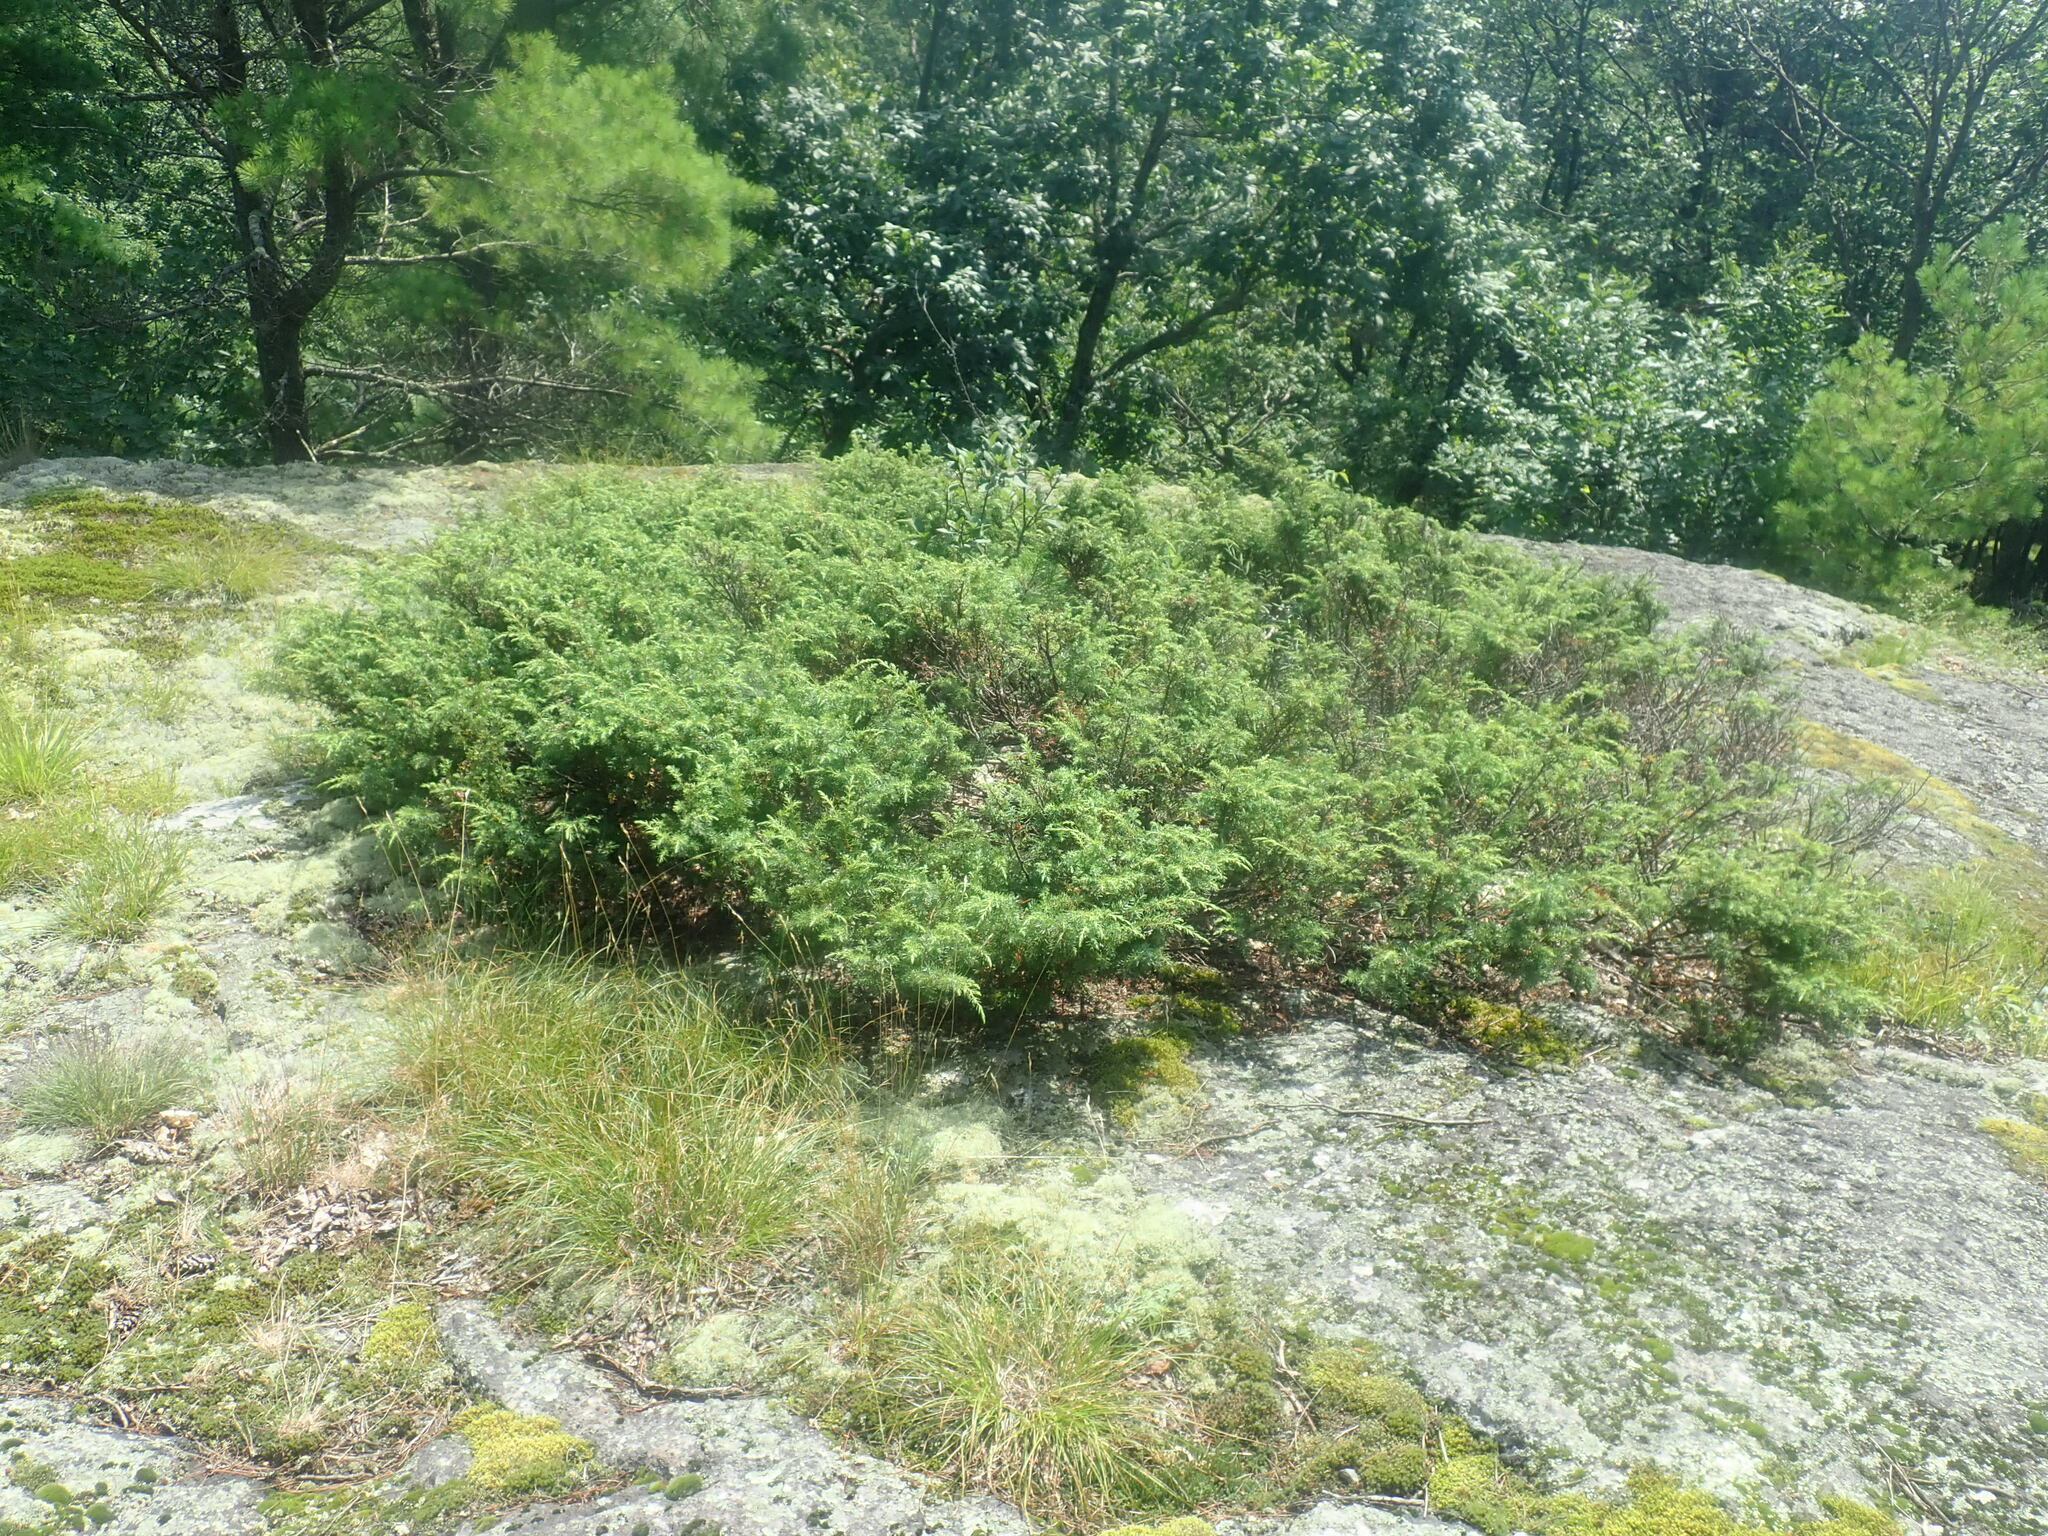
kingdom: Plantae
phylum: Tracheophyta
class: Pinopsida
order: Pinales
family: Cupressaceae
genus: Juniperus
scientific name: Juniperus communis
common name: Common juniper
